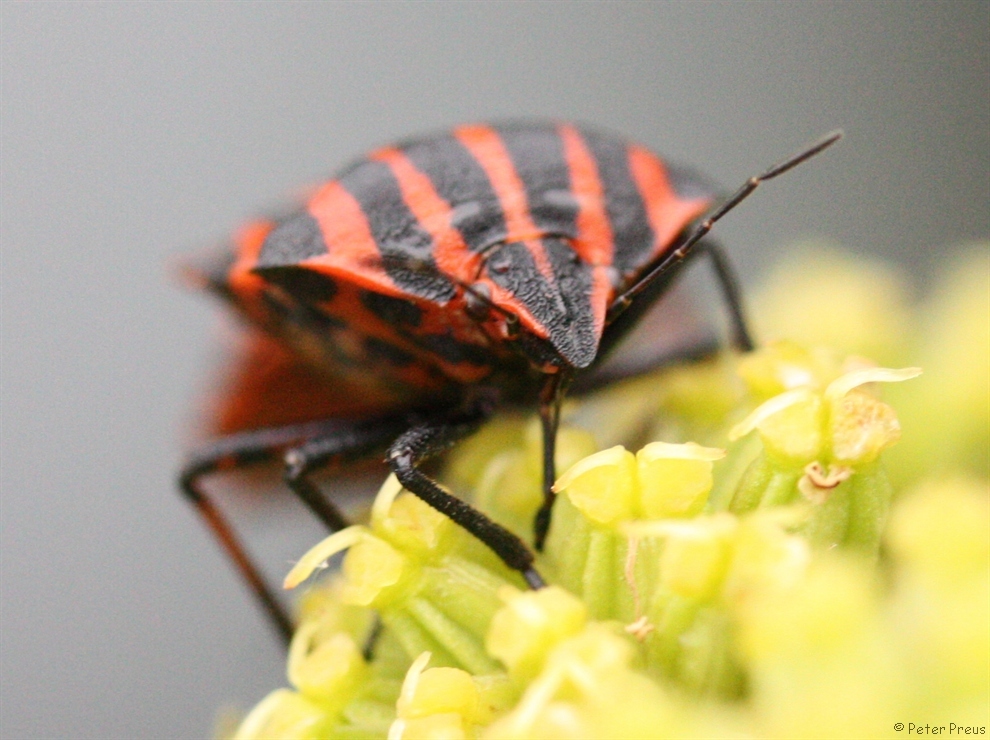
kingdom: Animalia
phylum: Arthropoda
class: Insecta
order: Hemiptera
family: Pentatomidae
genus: Graphosoma
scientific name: Graphosoma italicum
